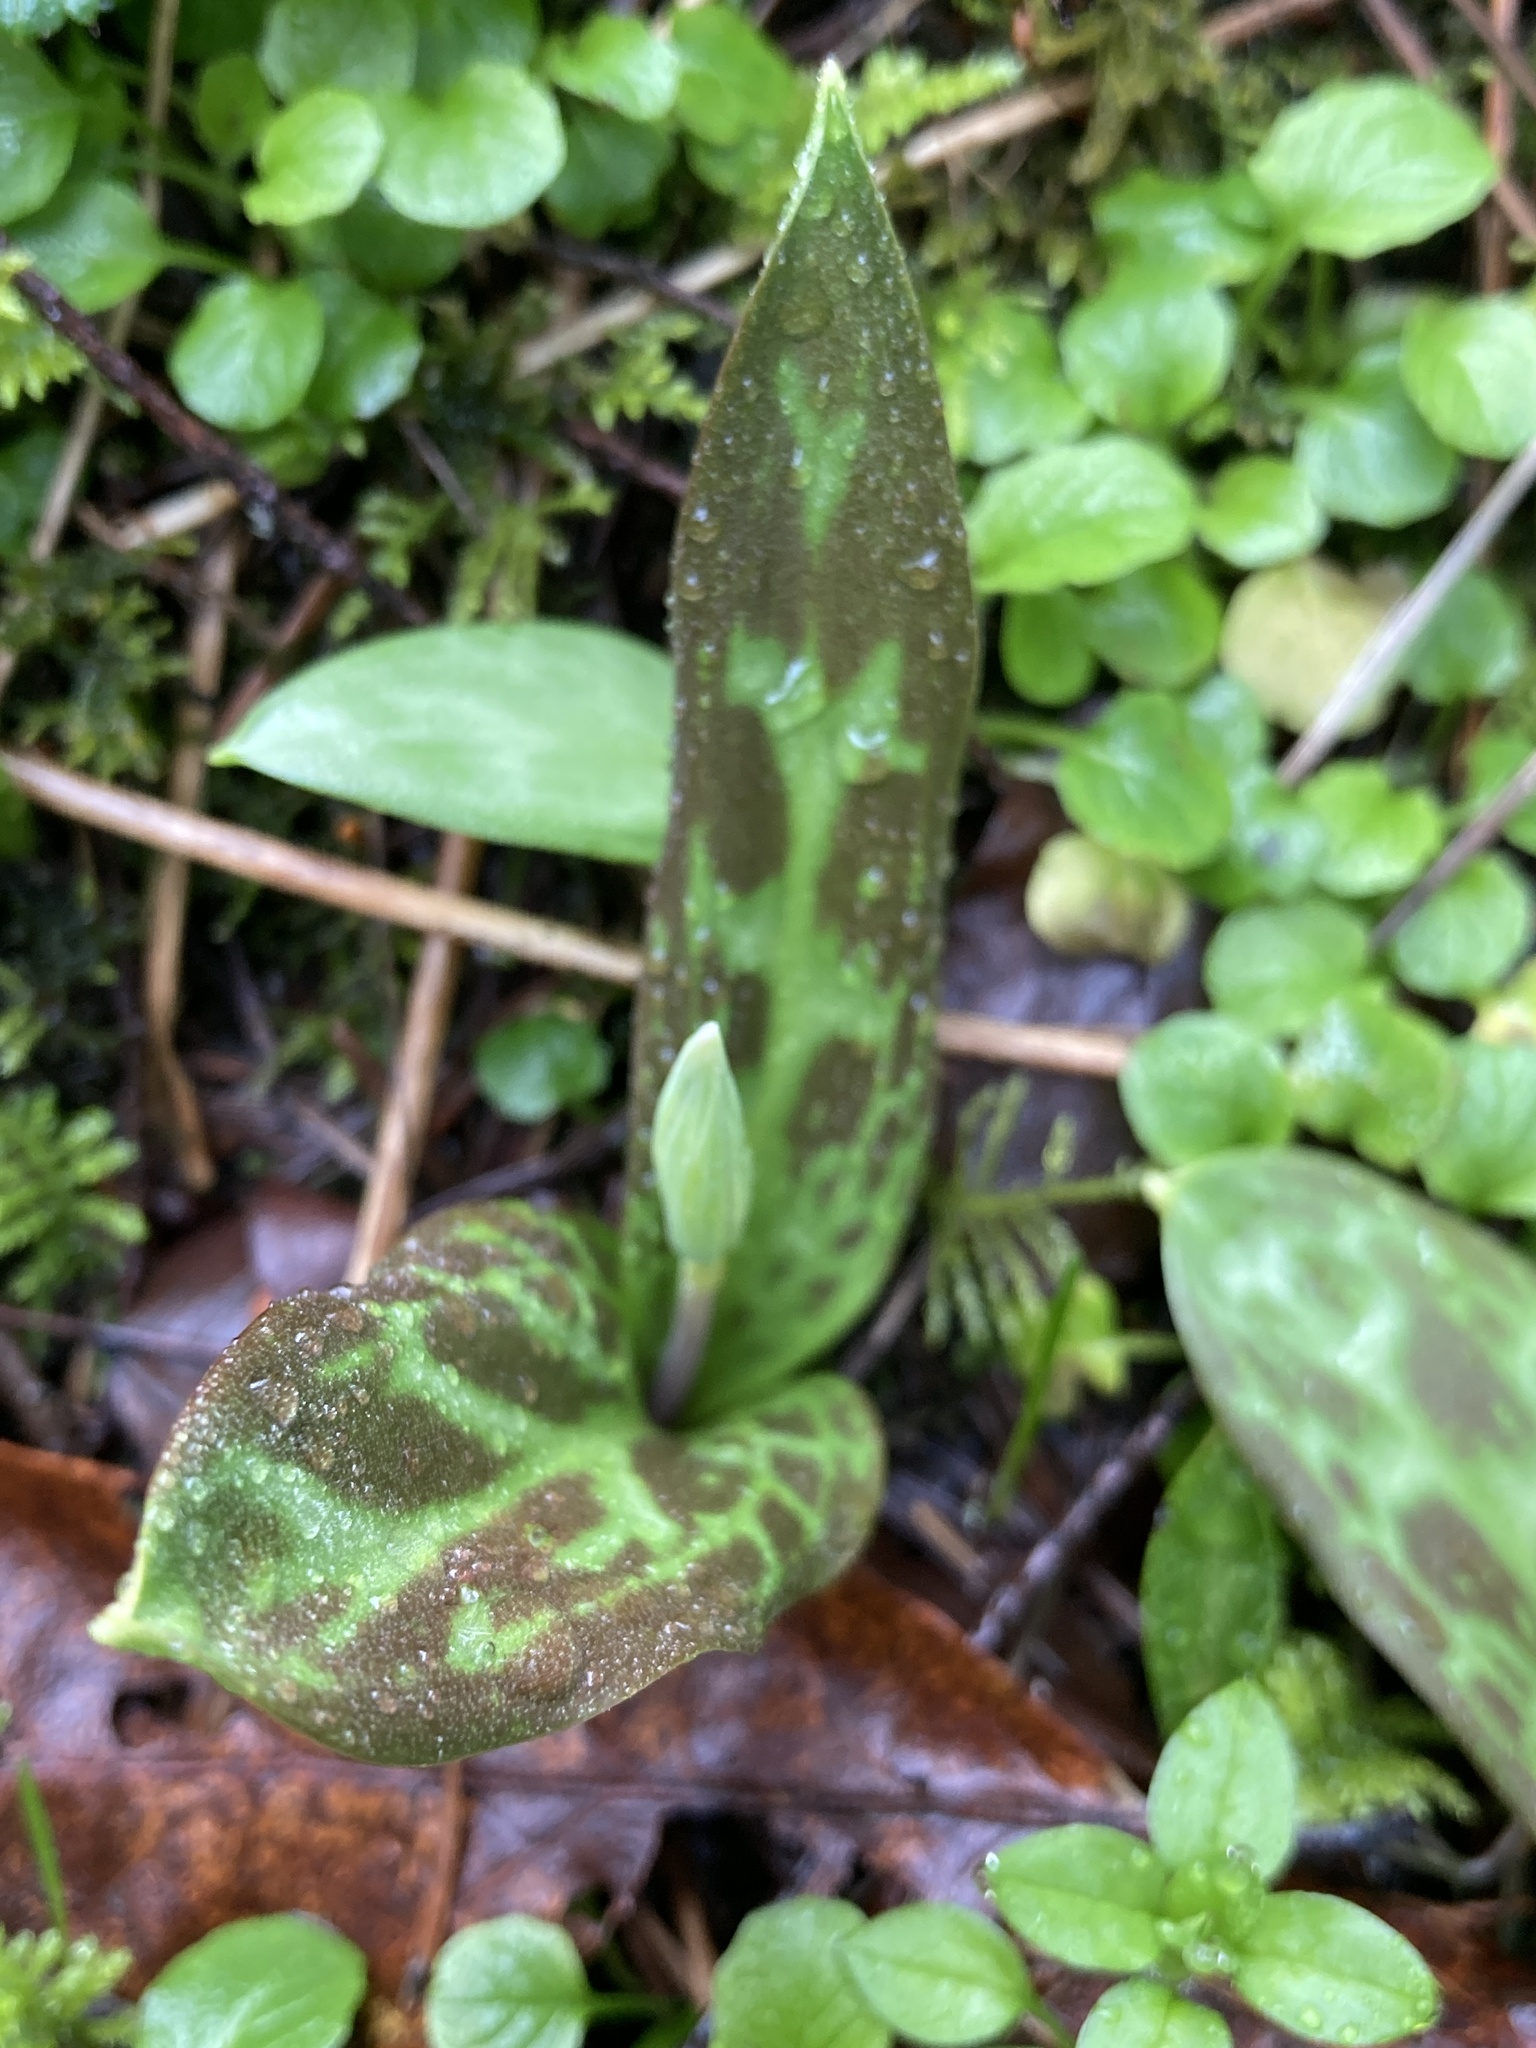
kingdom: Plantae
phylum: Tracheophyta
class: Liliopsida
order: Liliales
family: Liliaceae
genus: Erythronium
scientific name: Erythronium oregonum
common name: Giant adder's-tongue
